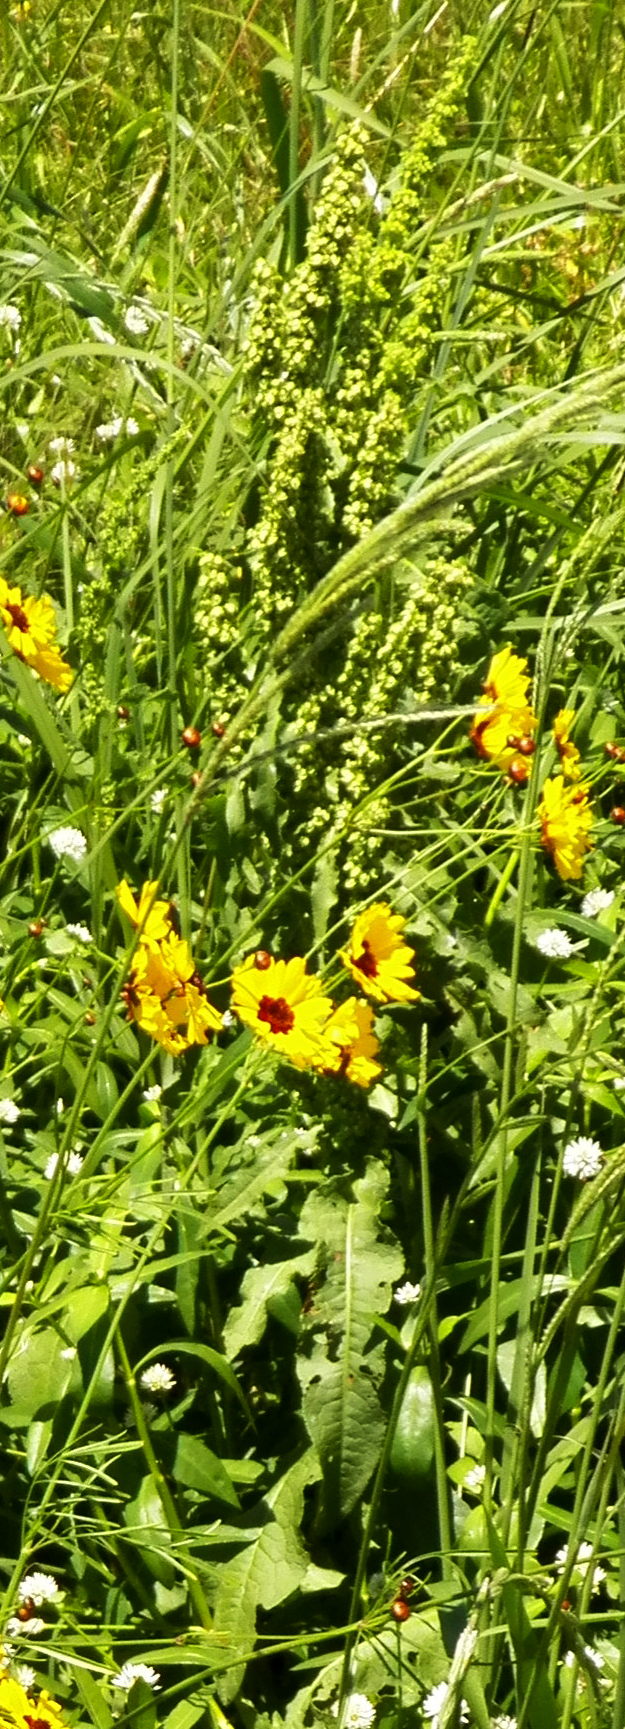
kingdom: Plantae
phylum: Tracheophyta
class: Magnoliopsida
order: Caryophyllales
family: Polygonaceae
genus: Rumex
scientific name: Rumex crispus
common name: Curled dock
